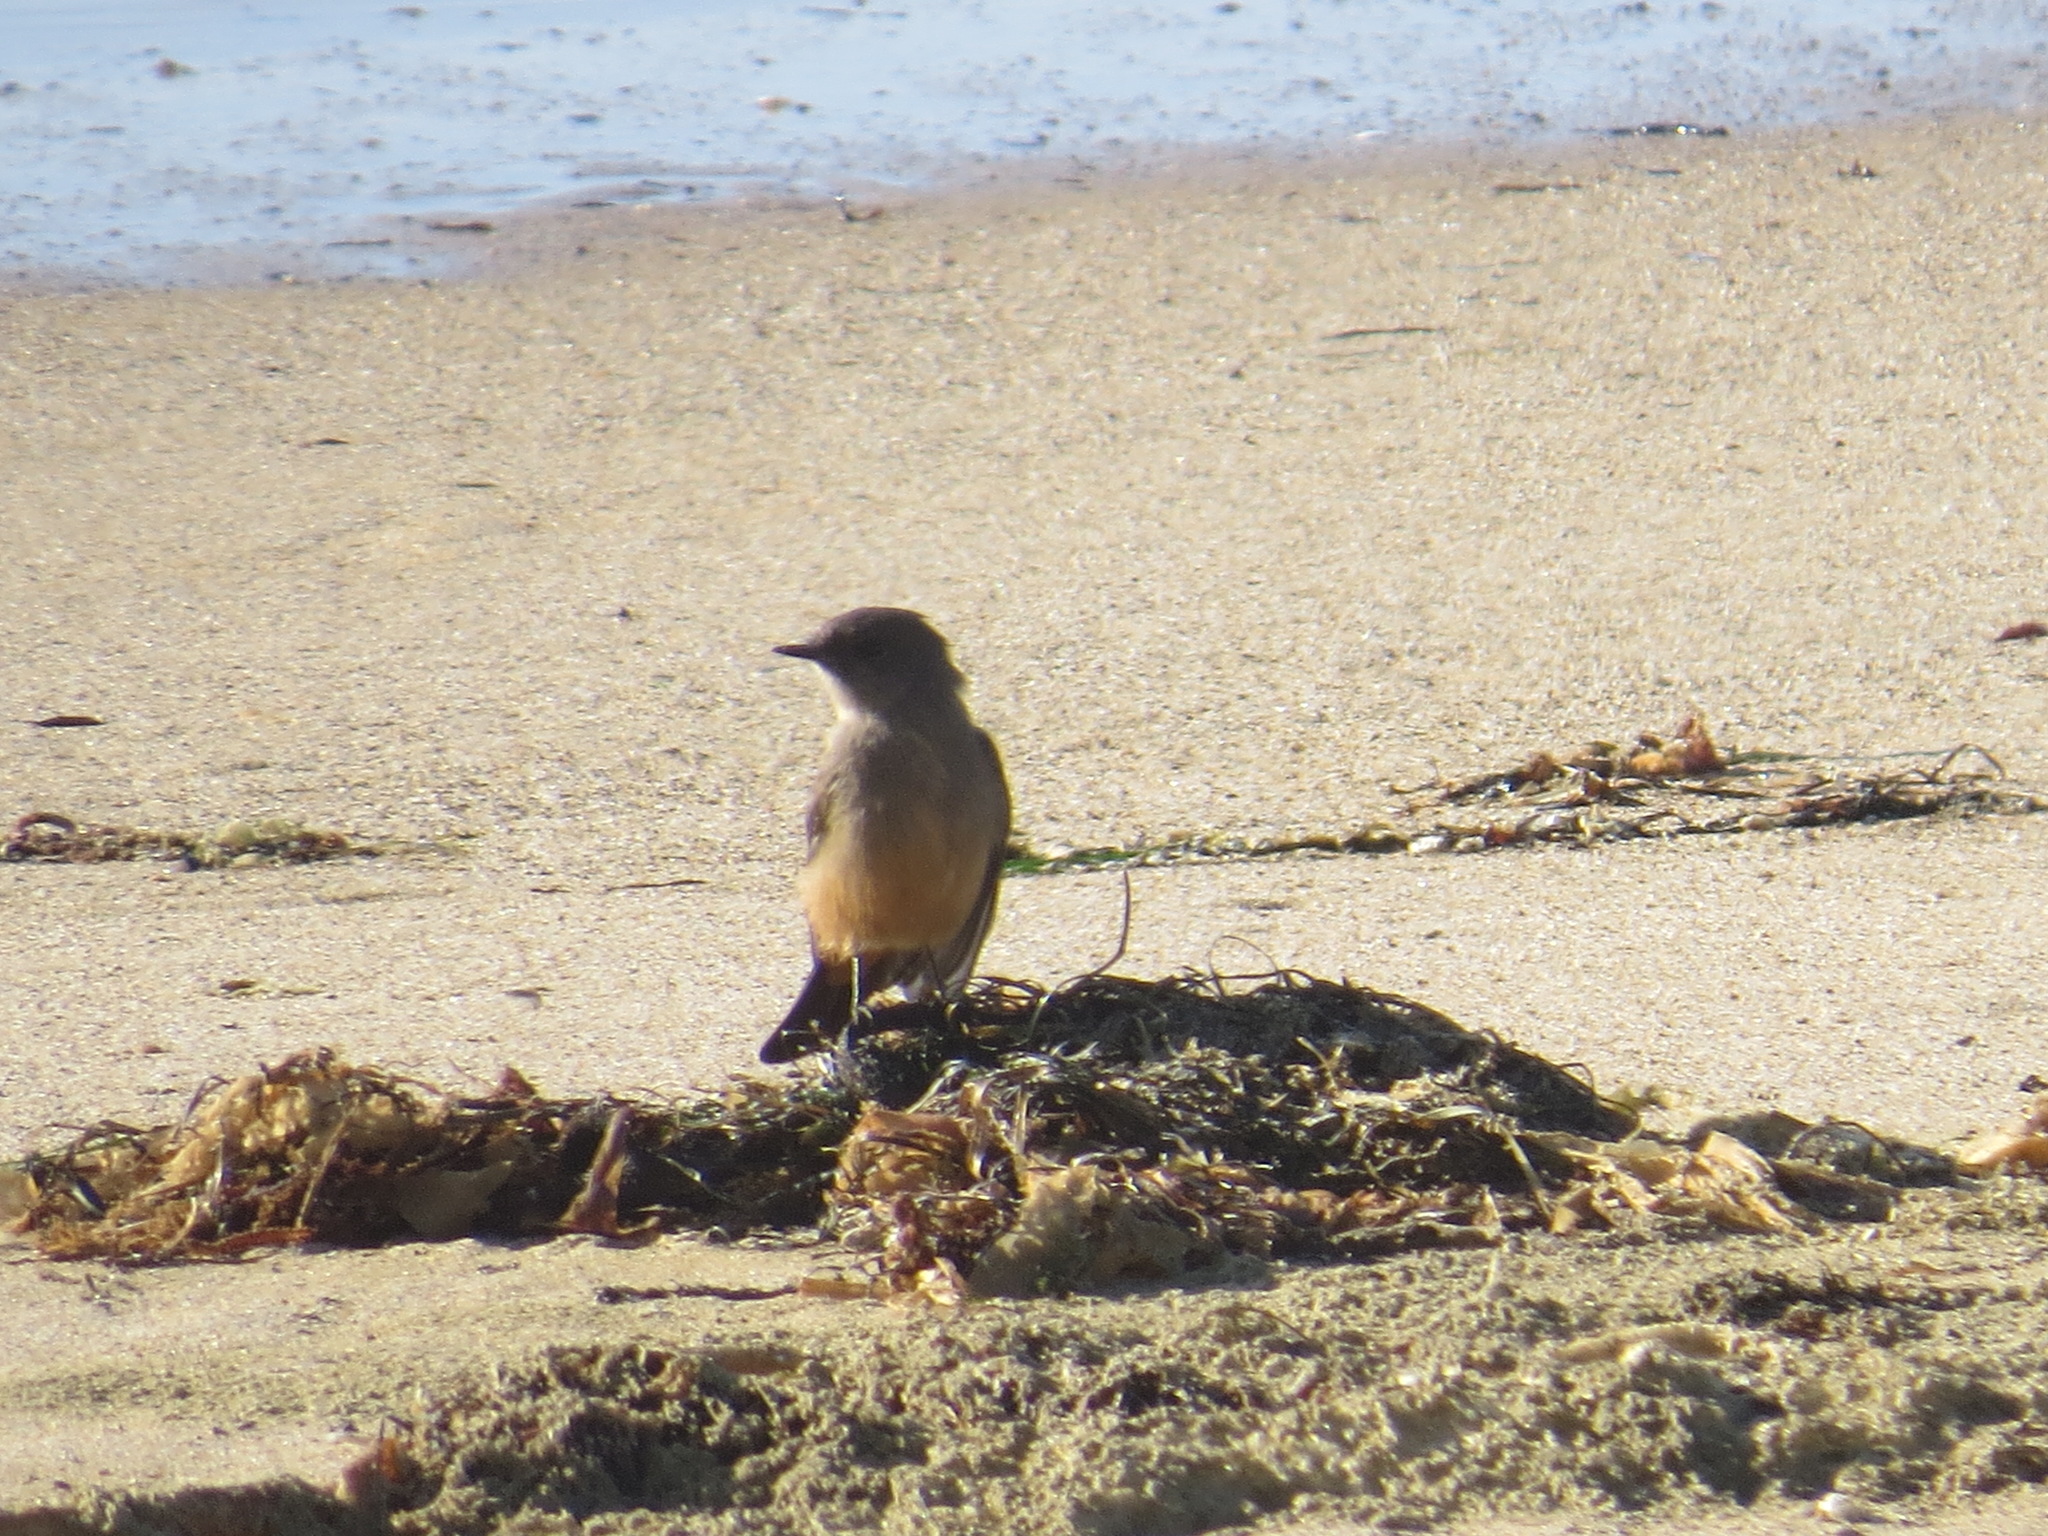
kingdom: Animalia
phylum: Chordata
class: Aves
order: Passeriformes
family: Tyrannidae
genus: Sayornis
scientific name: Sayornis saya
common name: Say's phoebe
